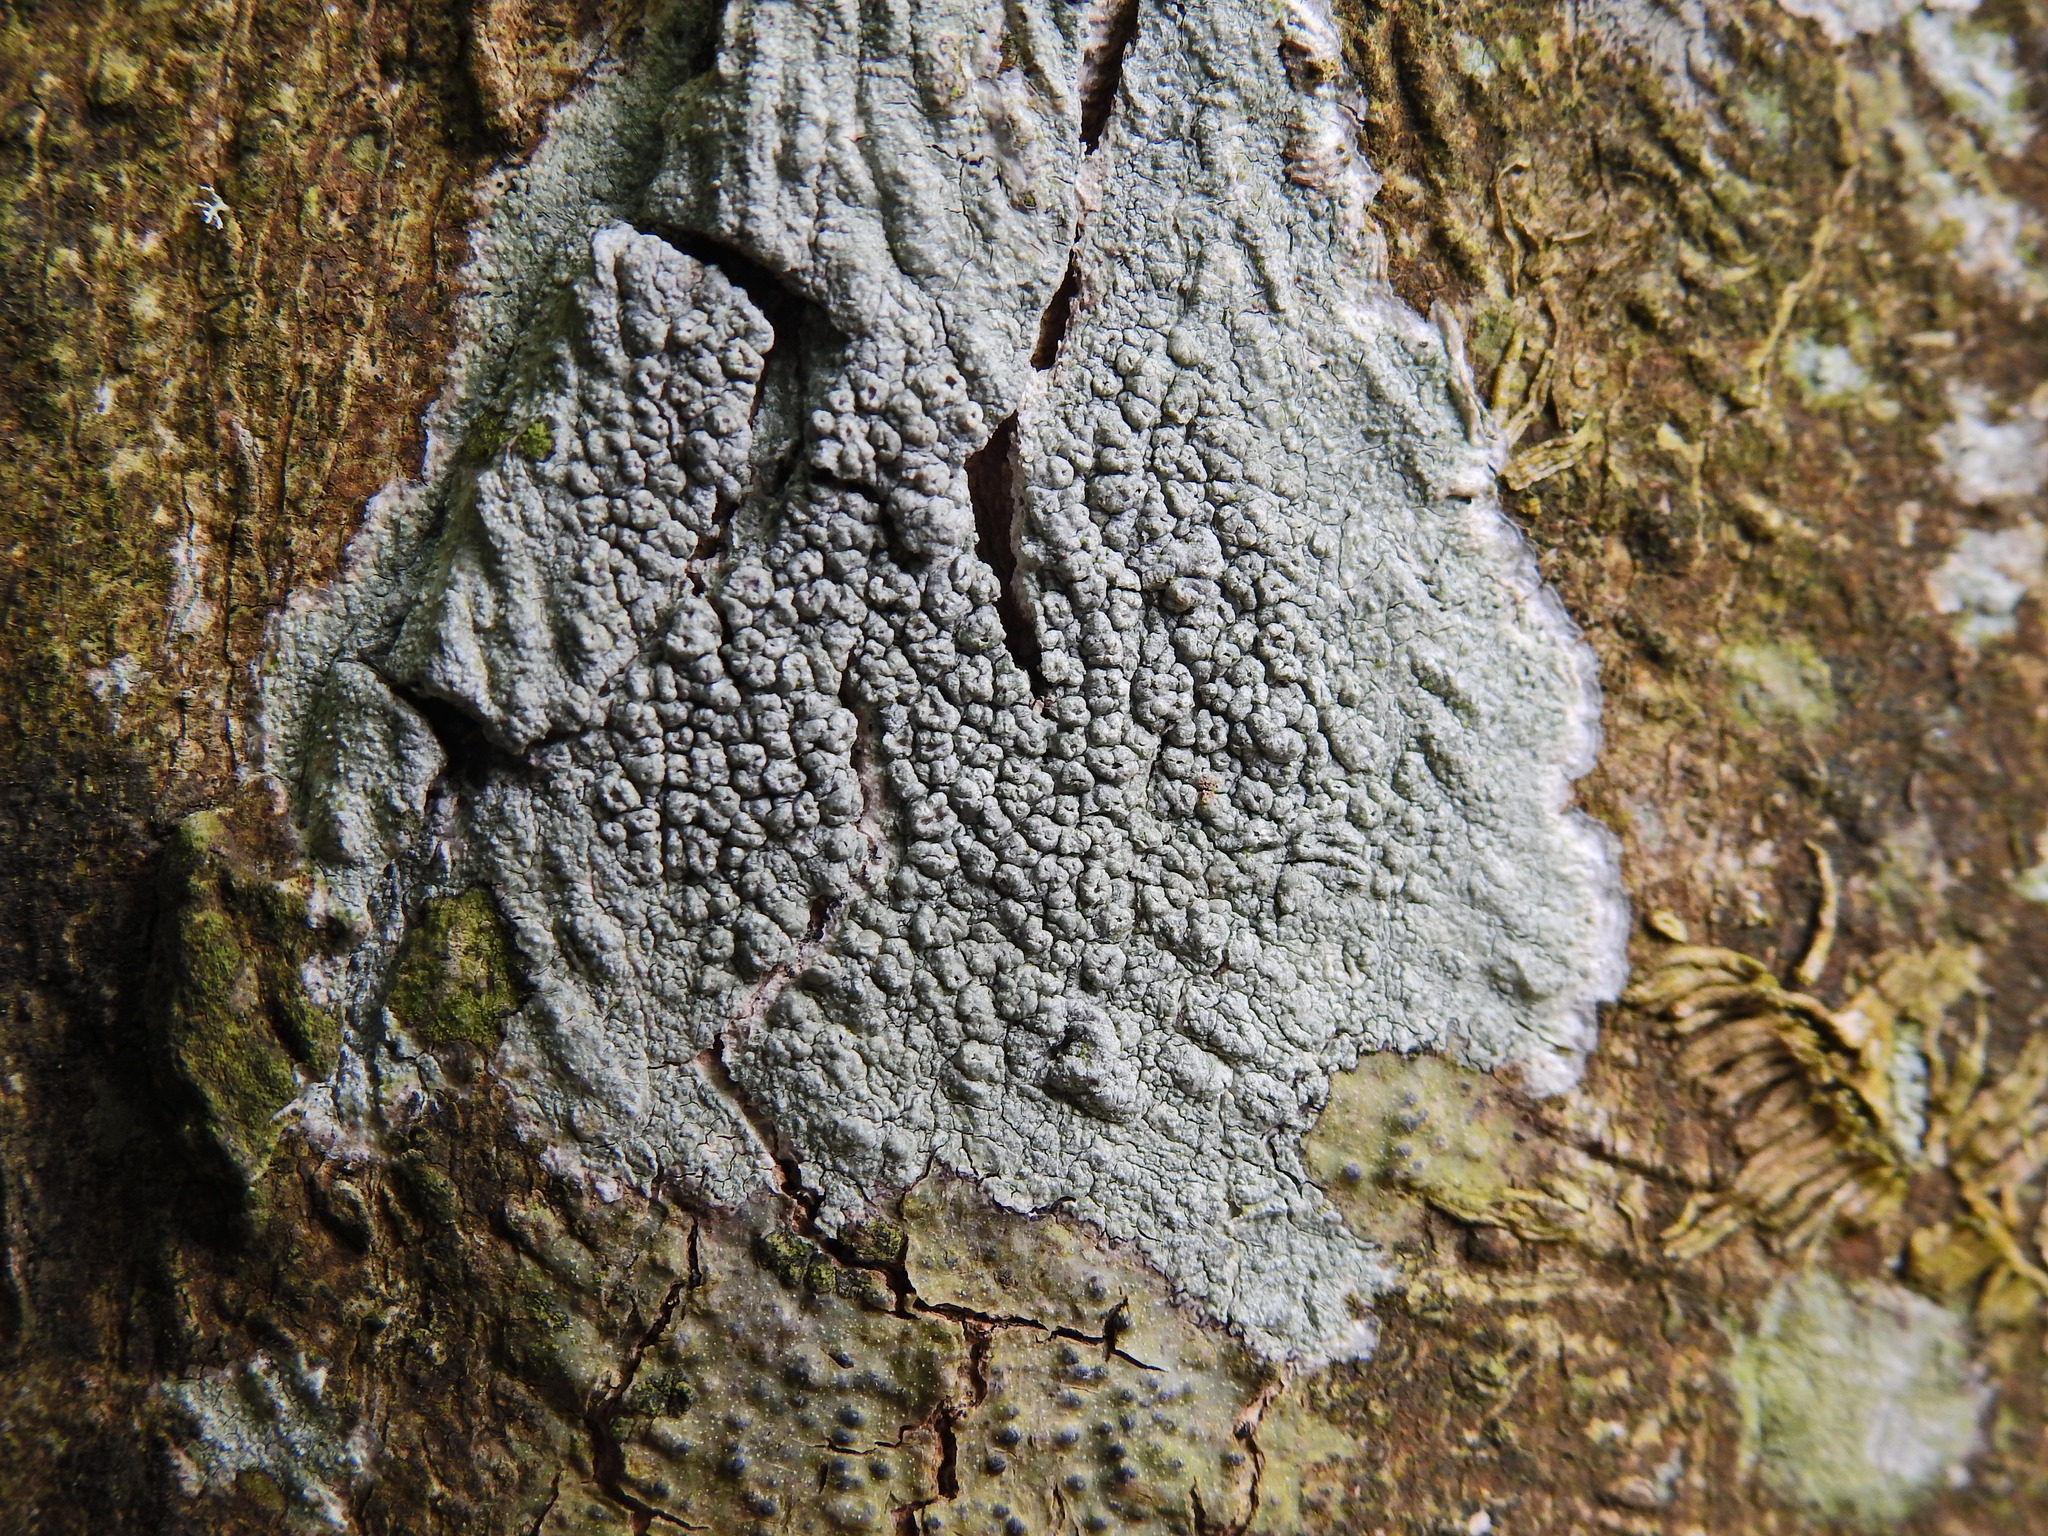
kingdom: Fungi
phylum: Ascomycota
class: Lecanoromycetes
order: Pertusariales
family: Pertusariaceae
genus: Pertusaria
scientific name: Pertusaria pertusa
